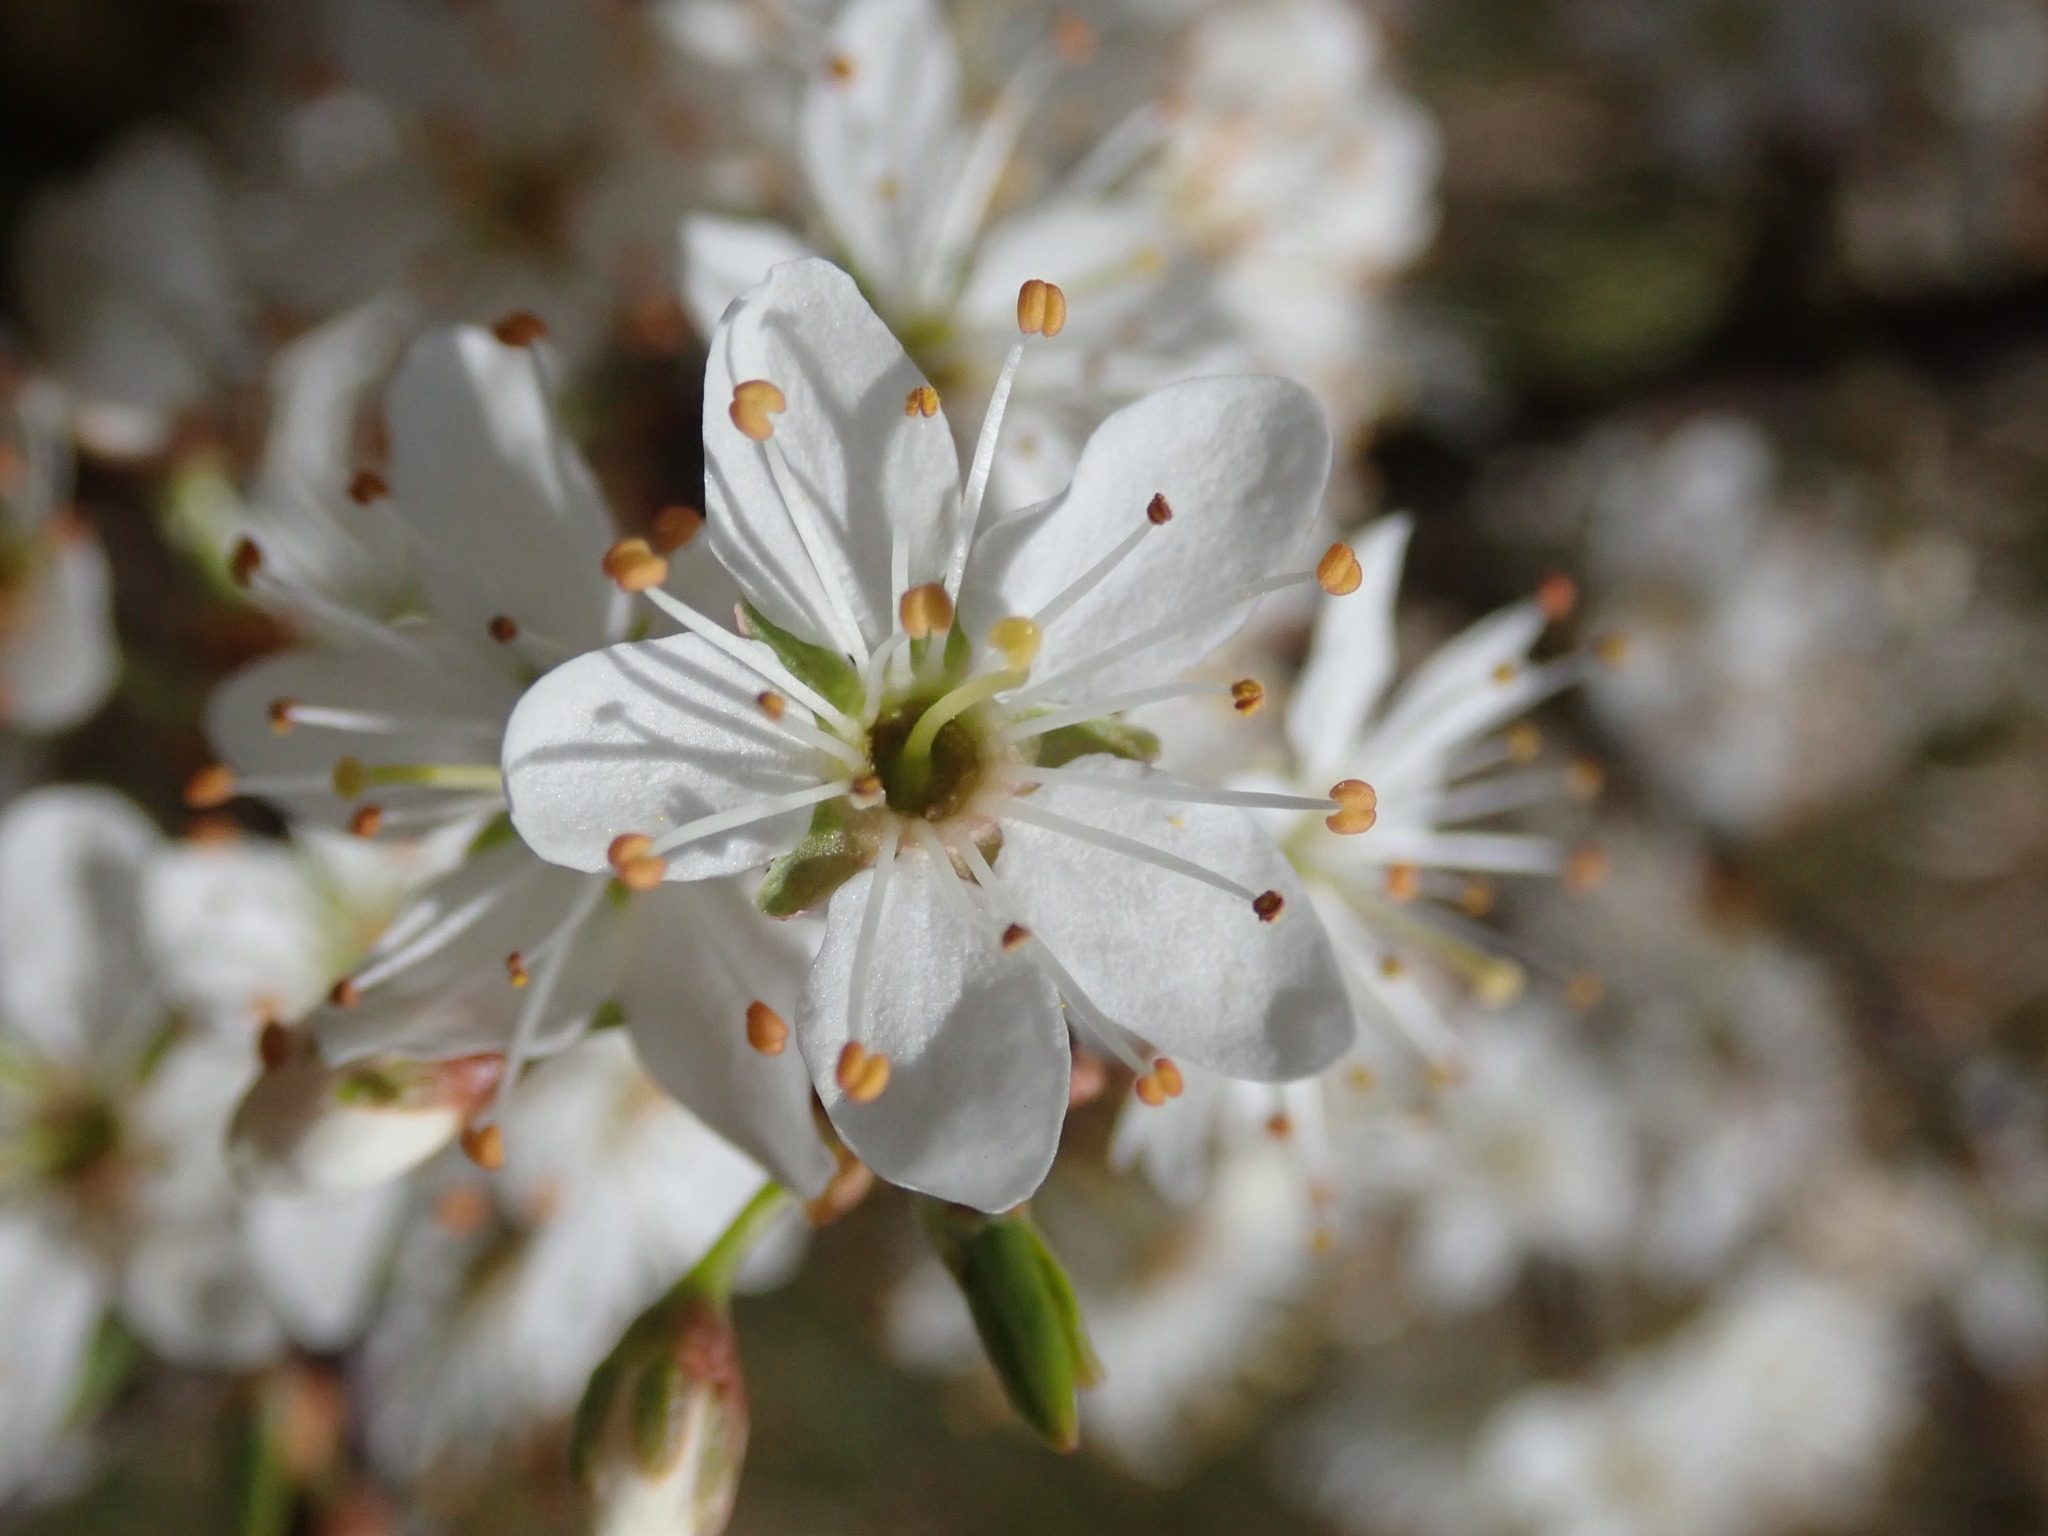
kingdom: Plantae
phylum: Tracheophyta
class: Magnoliopsida
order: Rosales
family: Rosaceae
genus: Prunus
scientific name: Prunus spinosa
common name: Blackthorn
